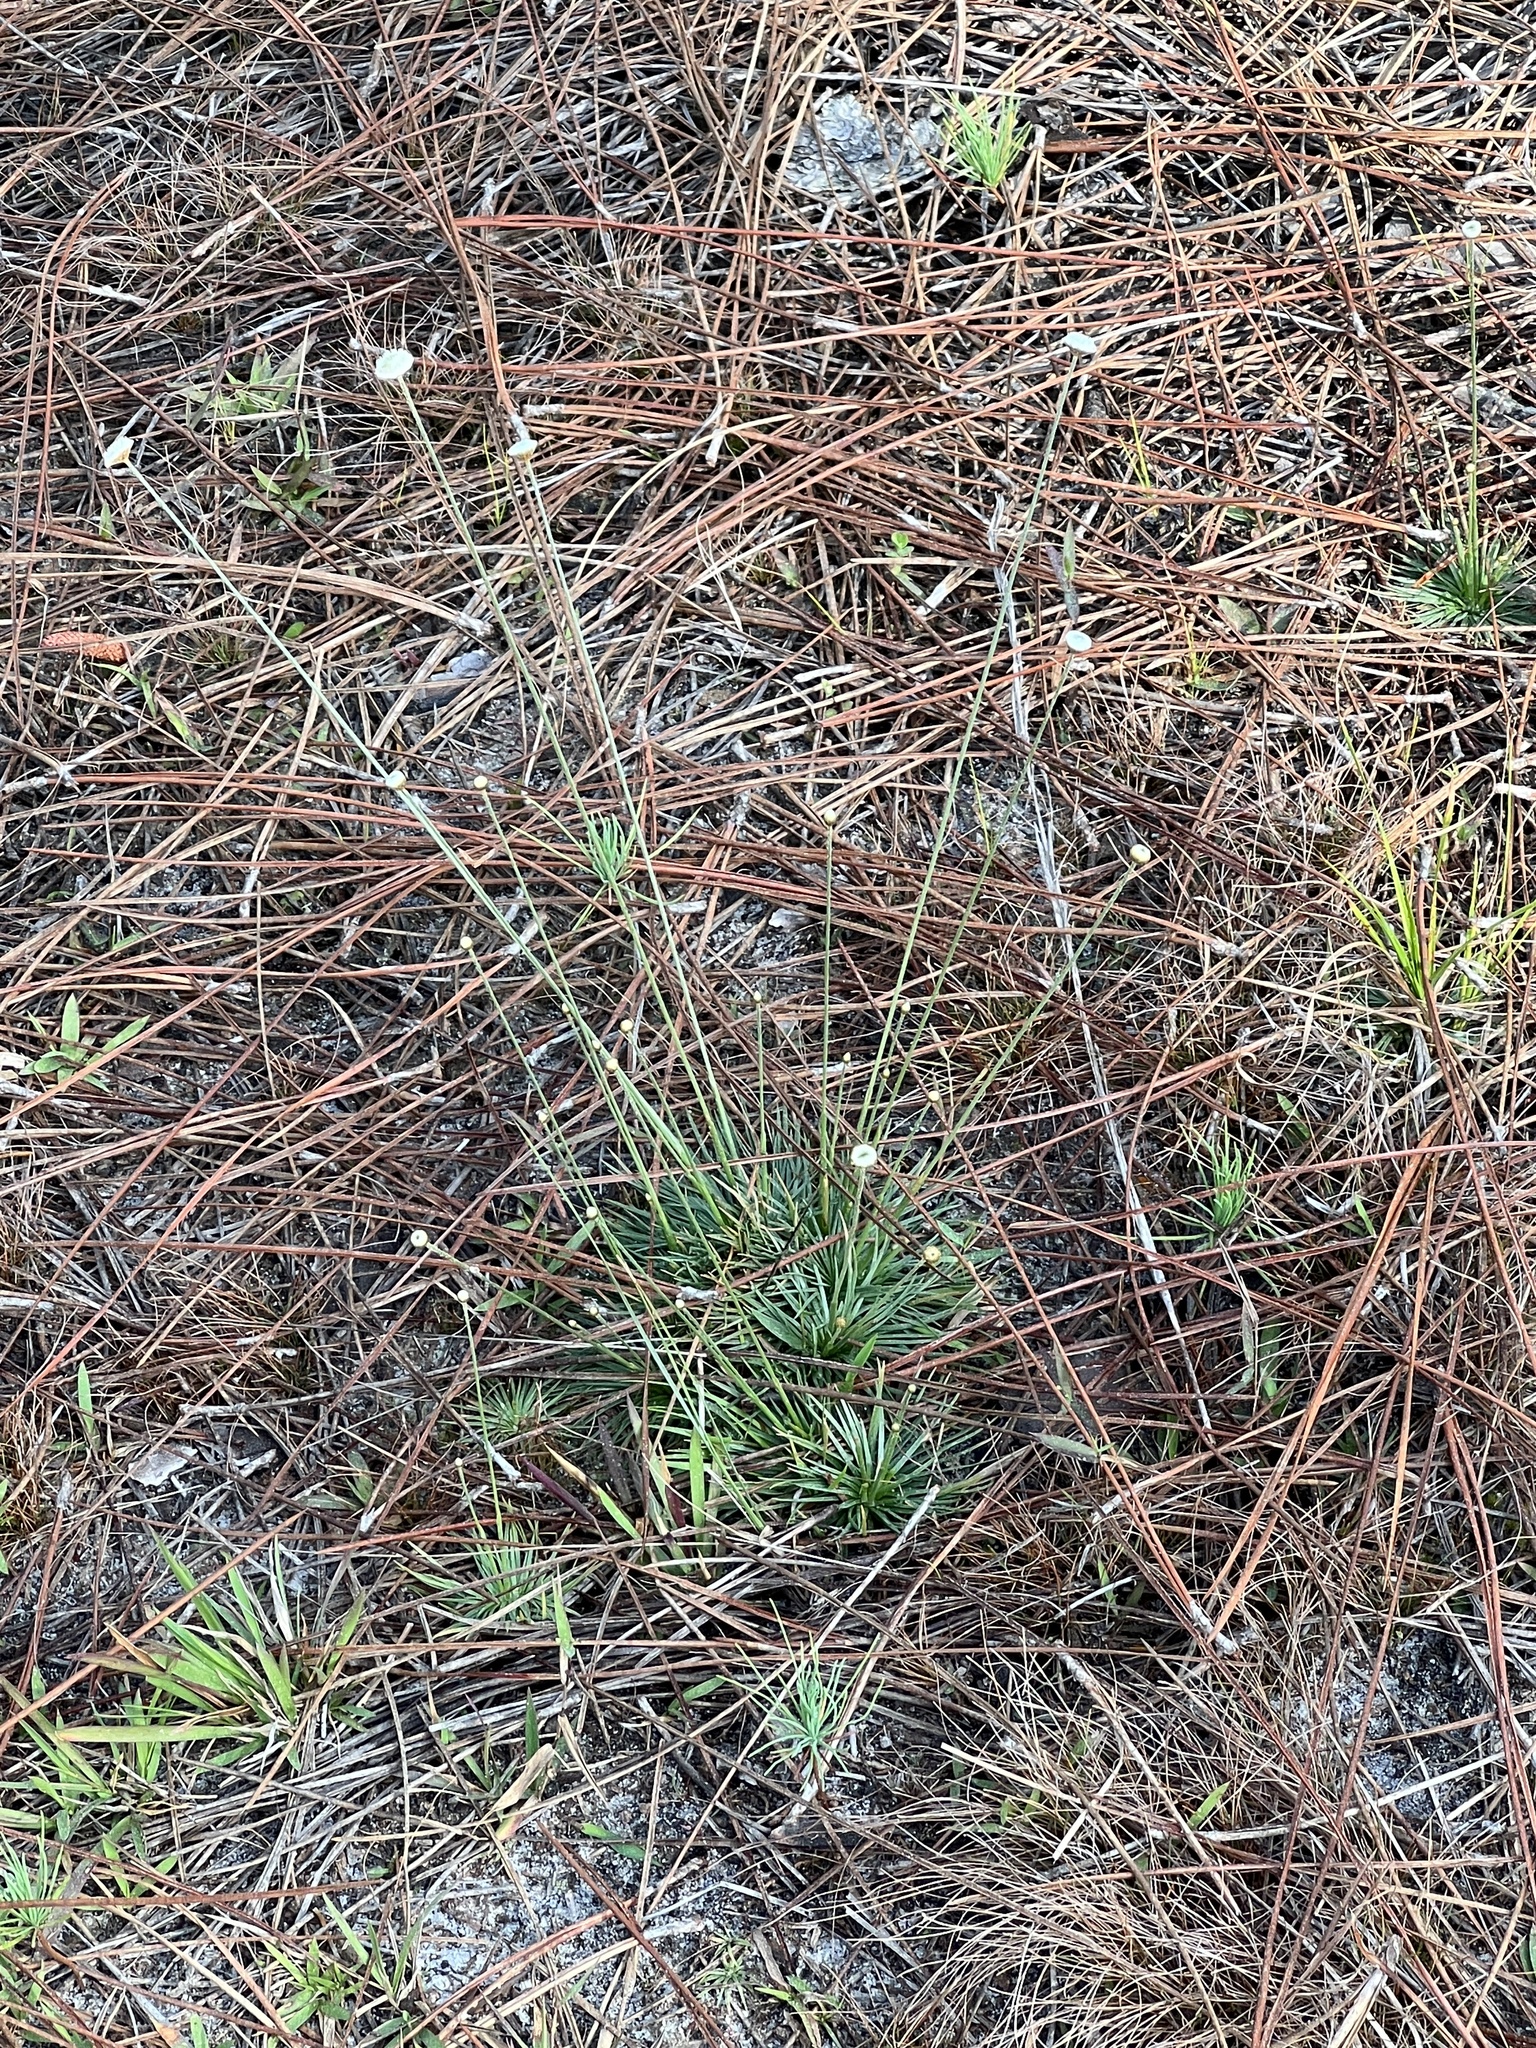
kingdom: Plantae
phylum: Tracheophyta
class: Liliopsida
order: Poales
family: Eriocaulaceae
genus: Syngonanthus
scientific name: Syngonanthus flavidulus
